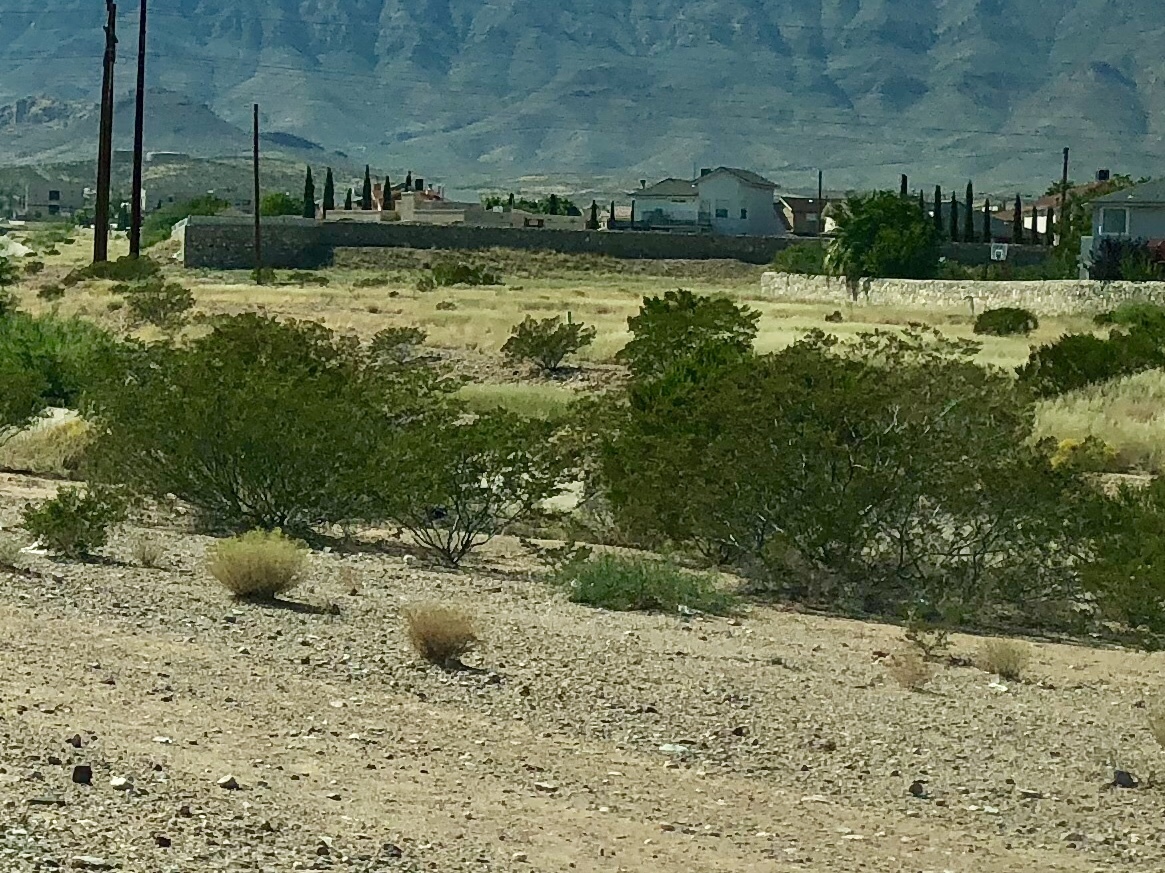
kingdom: Plantae
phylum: Tracheophyta
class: Magnoliopsida
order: Zygophyllales
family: Zygophyllaceae
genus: Larrea
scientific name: Larrea tridentata
